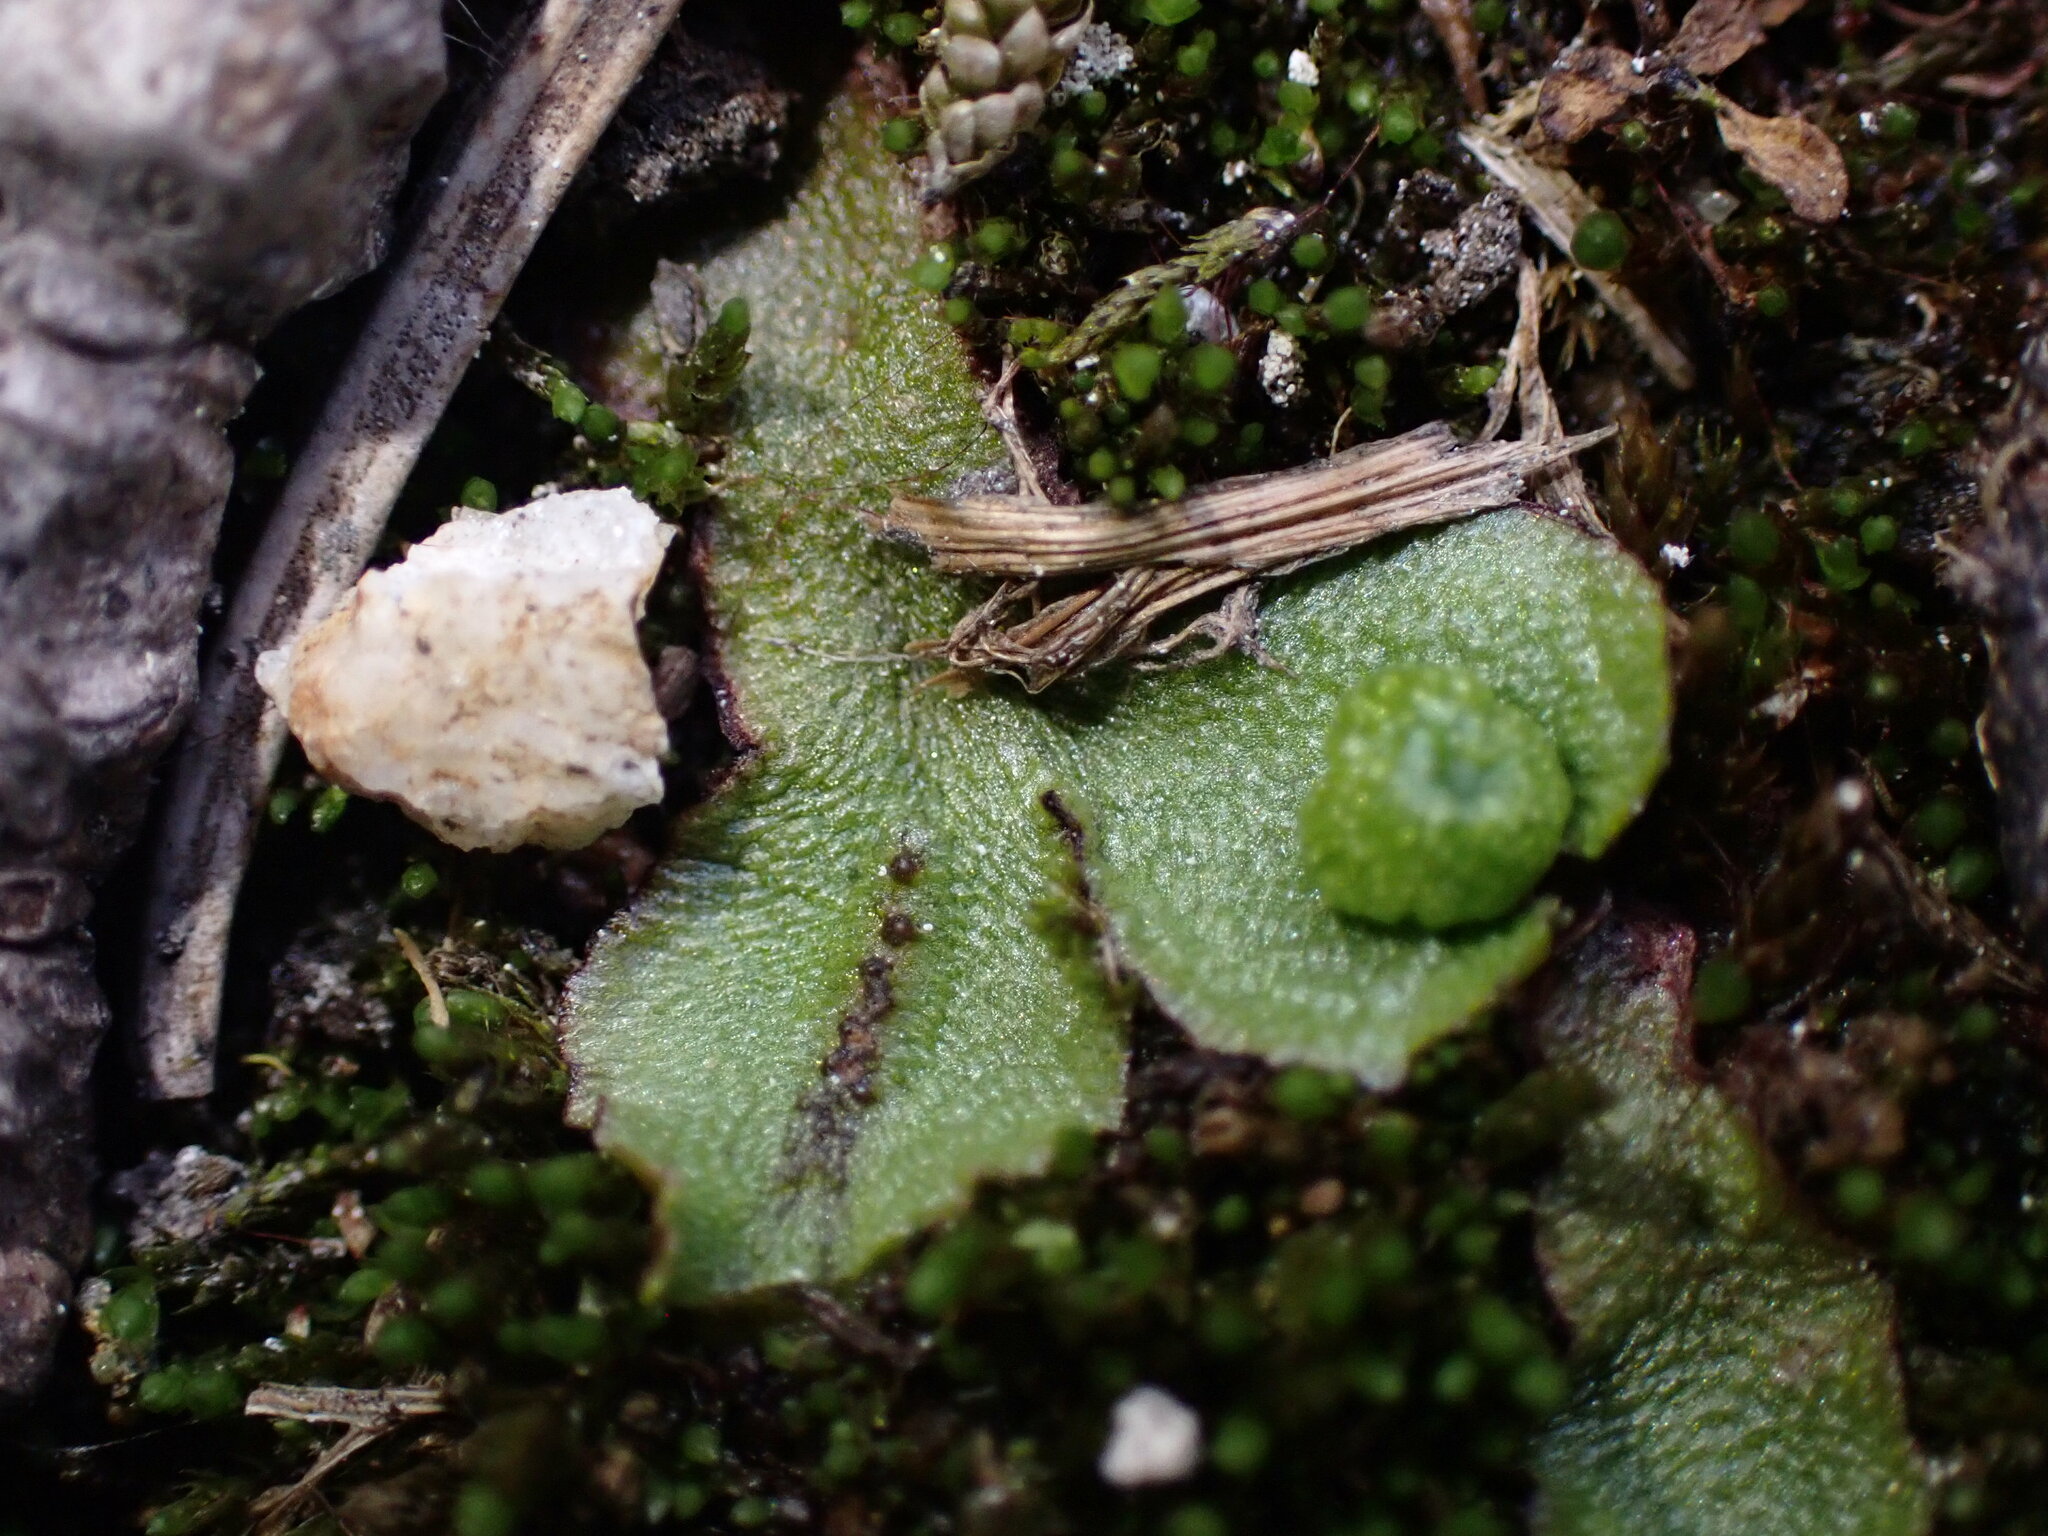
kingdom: Plantae
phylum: Marchantiophyta
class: Marchantiopsida
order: Marchantiales
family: Aytoniaceae
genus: Mannia
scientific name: Mannia gracilis
